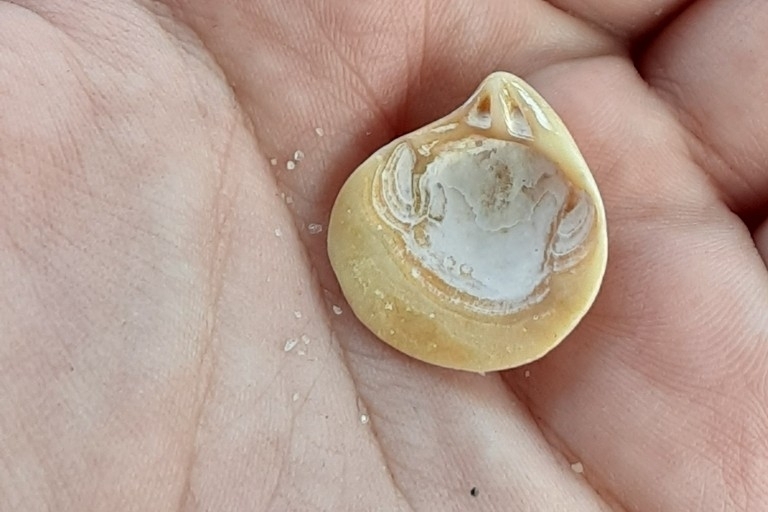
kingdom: Animalia
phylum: Mollusca
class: Bivalvia
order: Cardiida
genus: Isocrassina
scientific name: Isocrassina
